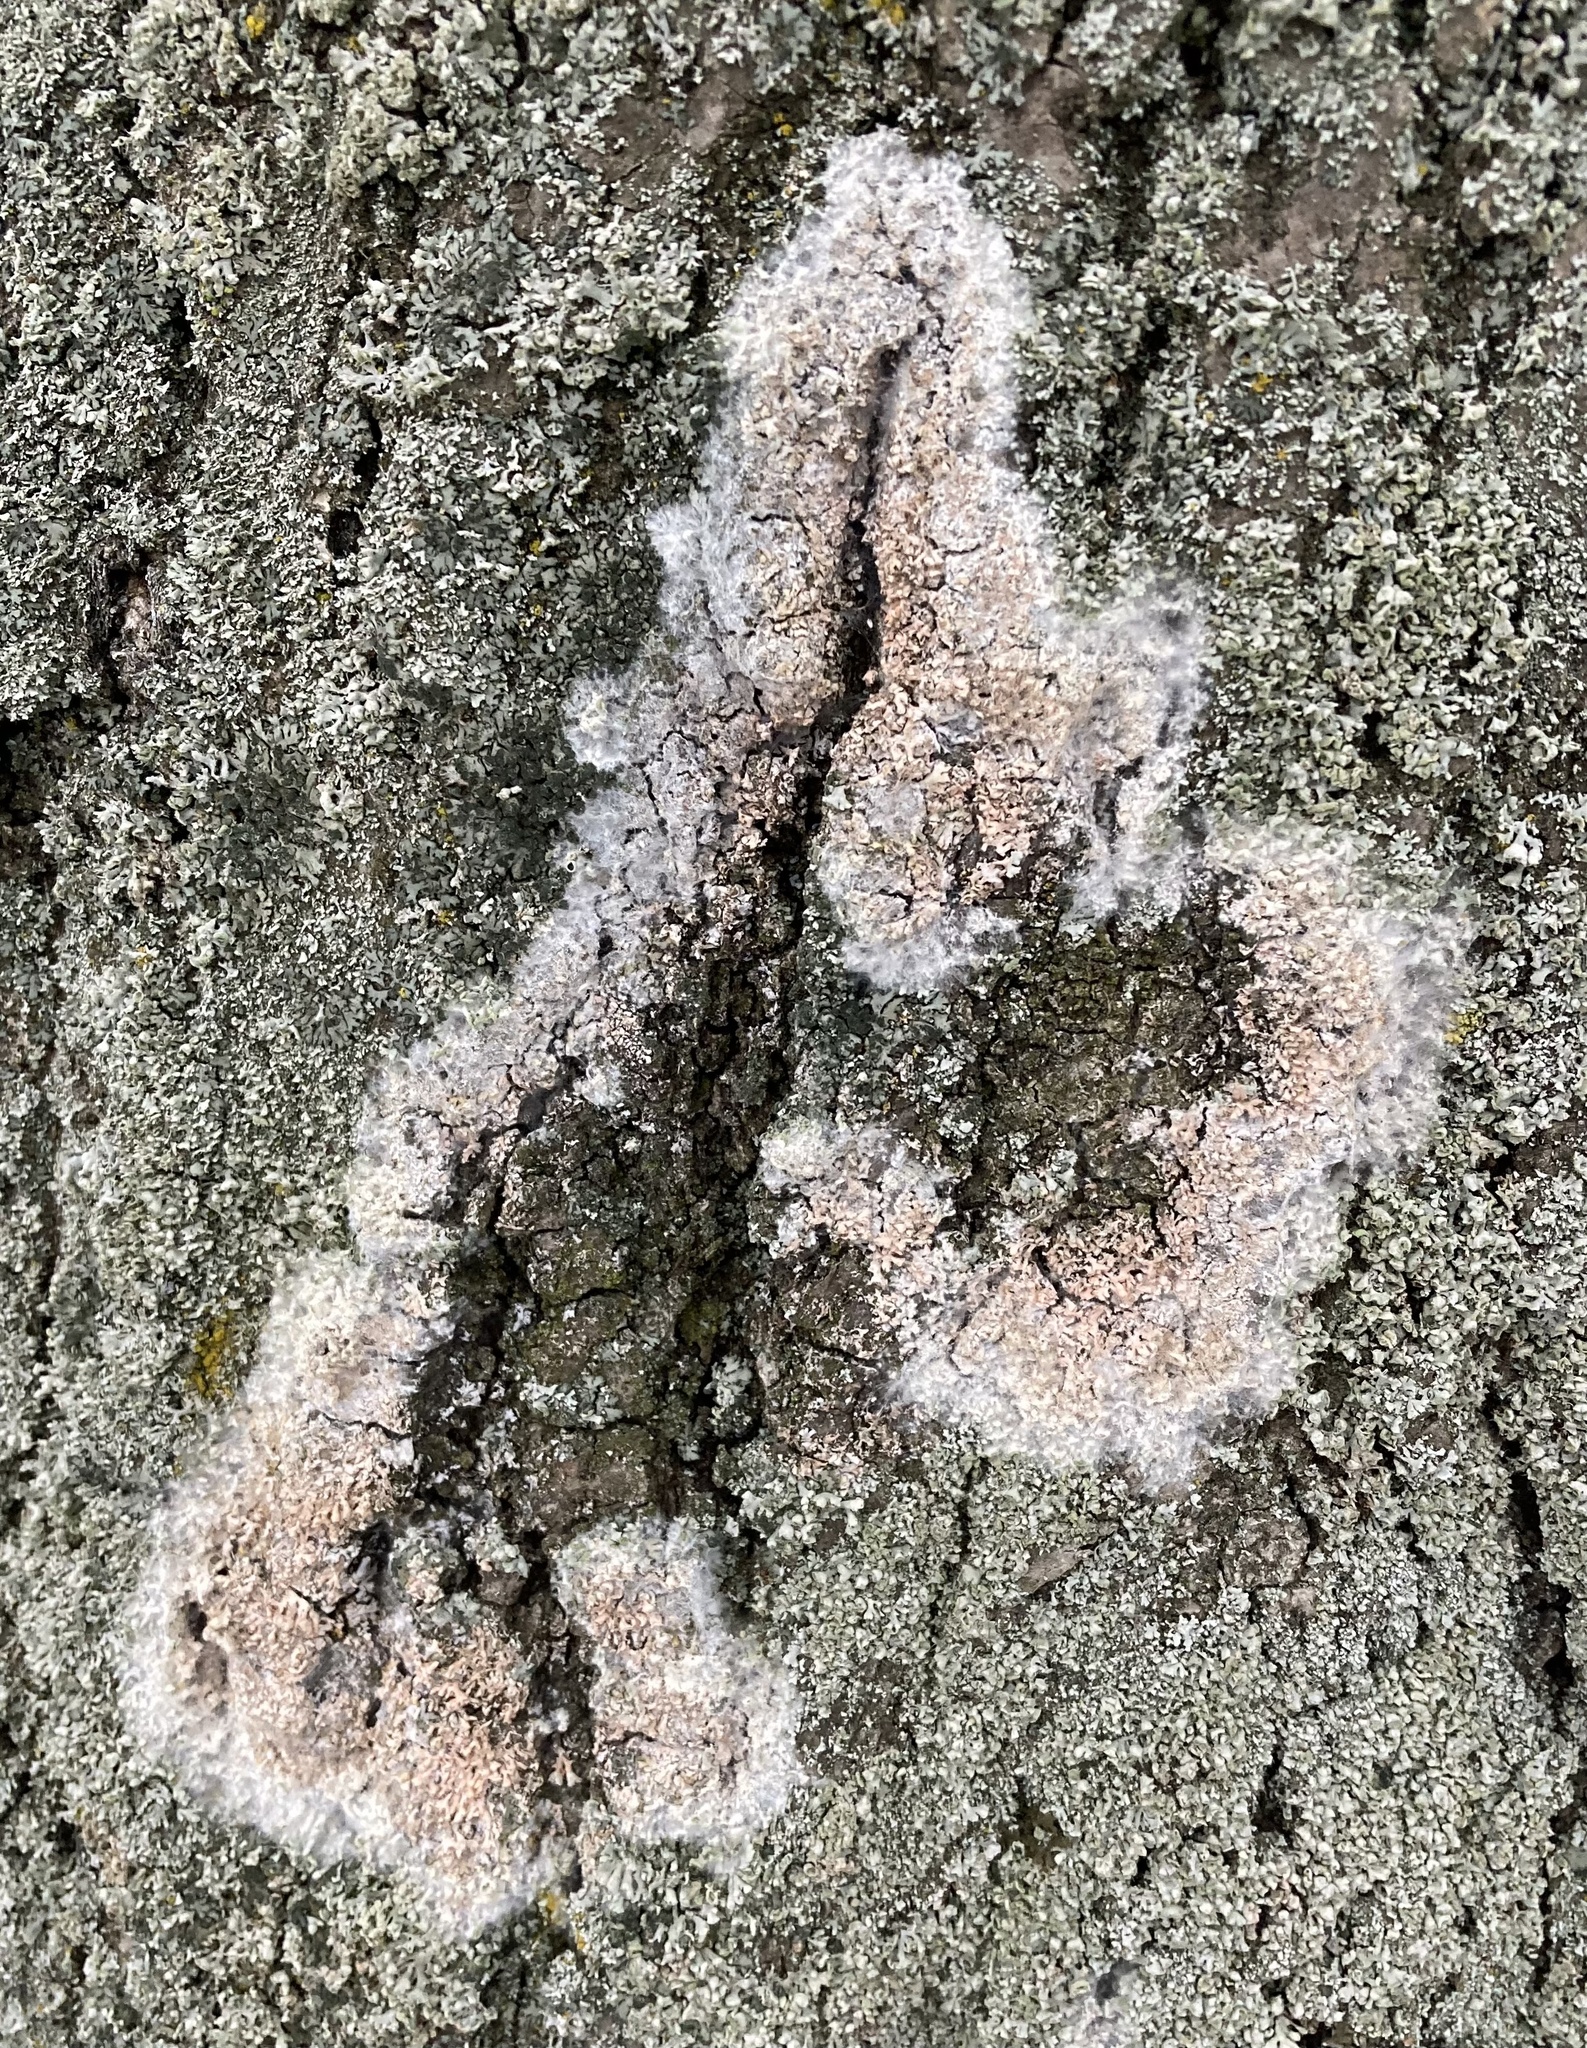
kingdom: Fungi
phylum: Basidiomycota
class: Agaricomycetes
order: Atheliales
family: Atheliaceae
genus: Athelia
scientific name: Athelia arachnoidea
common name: Candelabra duster
